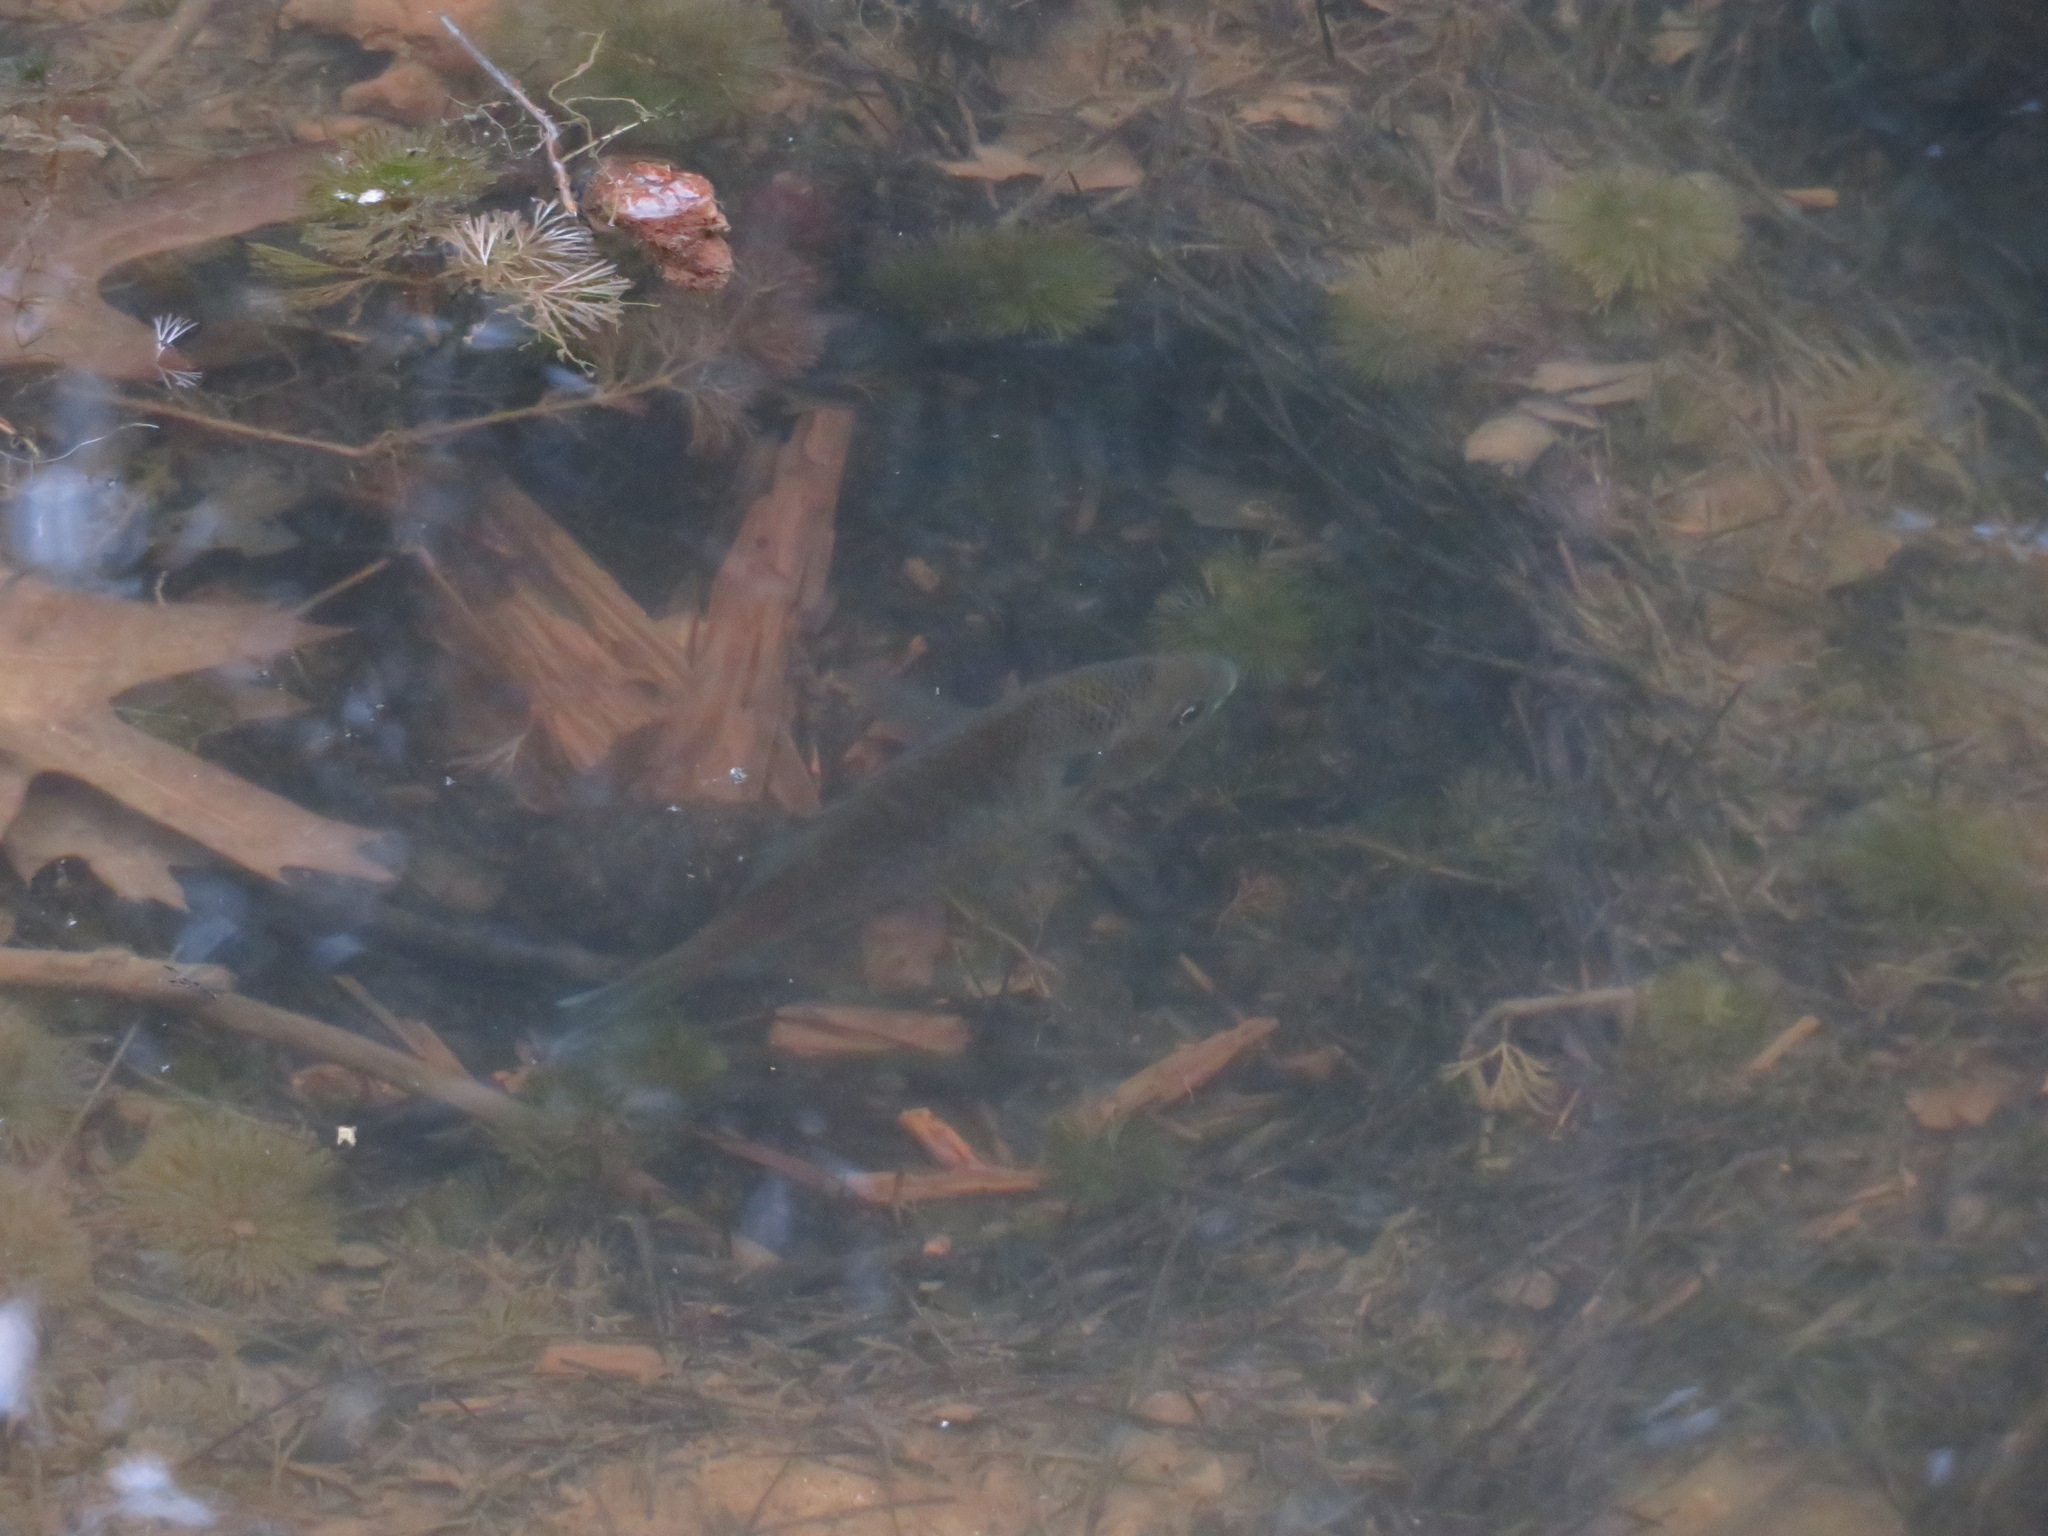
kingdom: Animalia
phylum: Chordata
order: Perciformes
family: Centrarchidae
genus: Lepomis
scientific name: Lepomis macrochirus
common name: Bluegill
